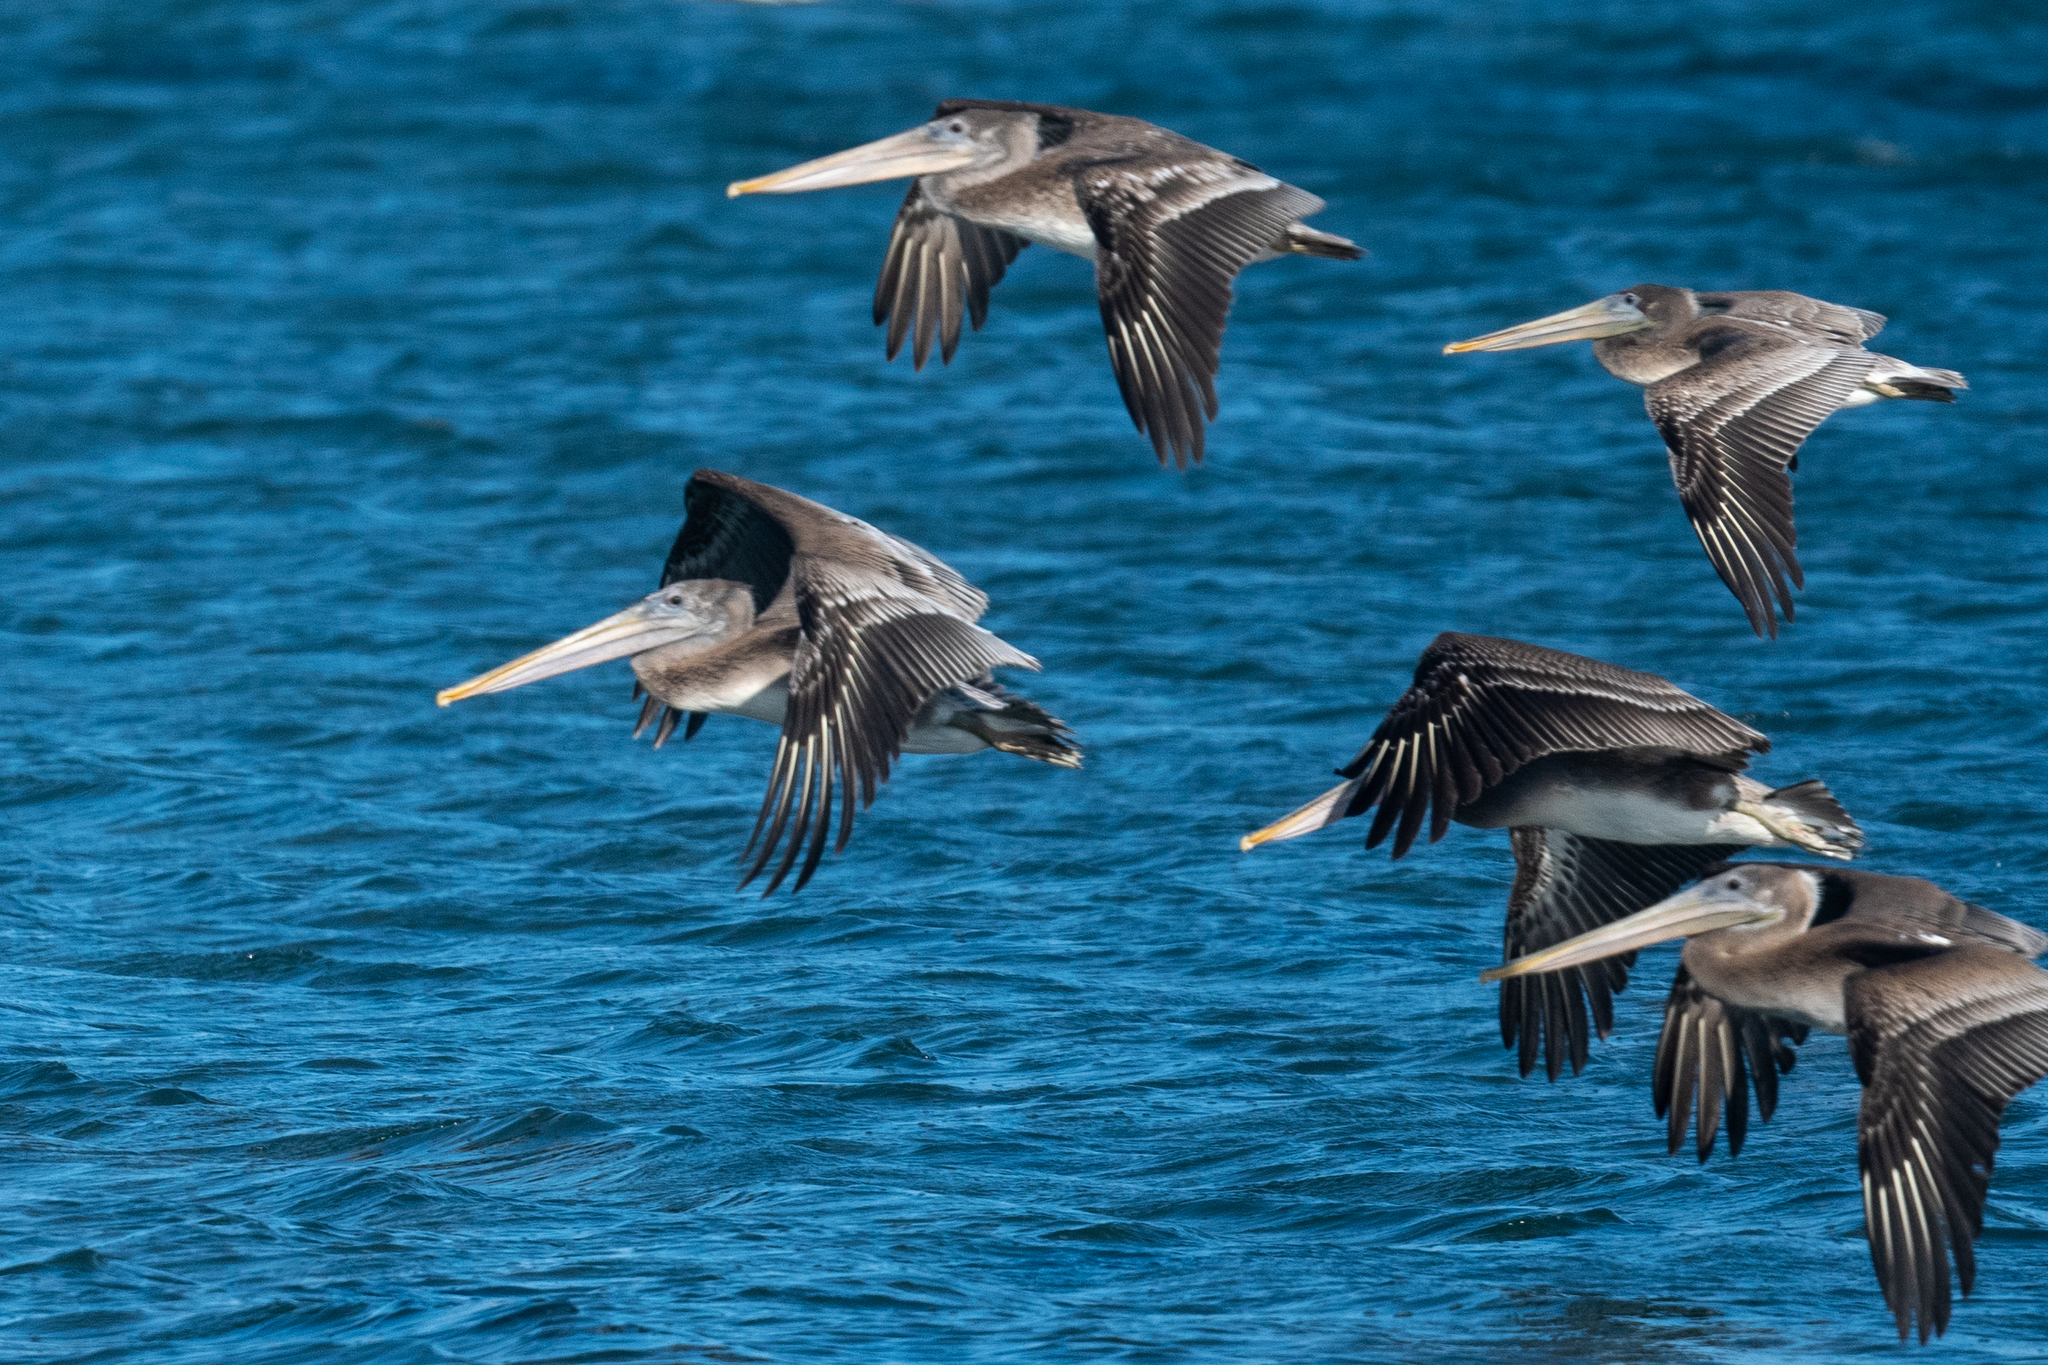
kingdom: Animalia
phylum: Chordata
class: Aves
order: Pelecaniformes
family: Pelecanidae
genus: Pelecanus
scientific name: Pelecanus occidentalis
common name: Brown pelican
